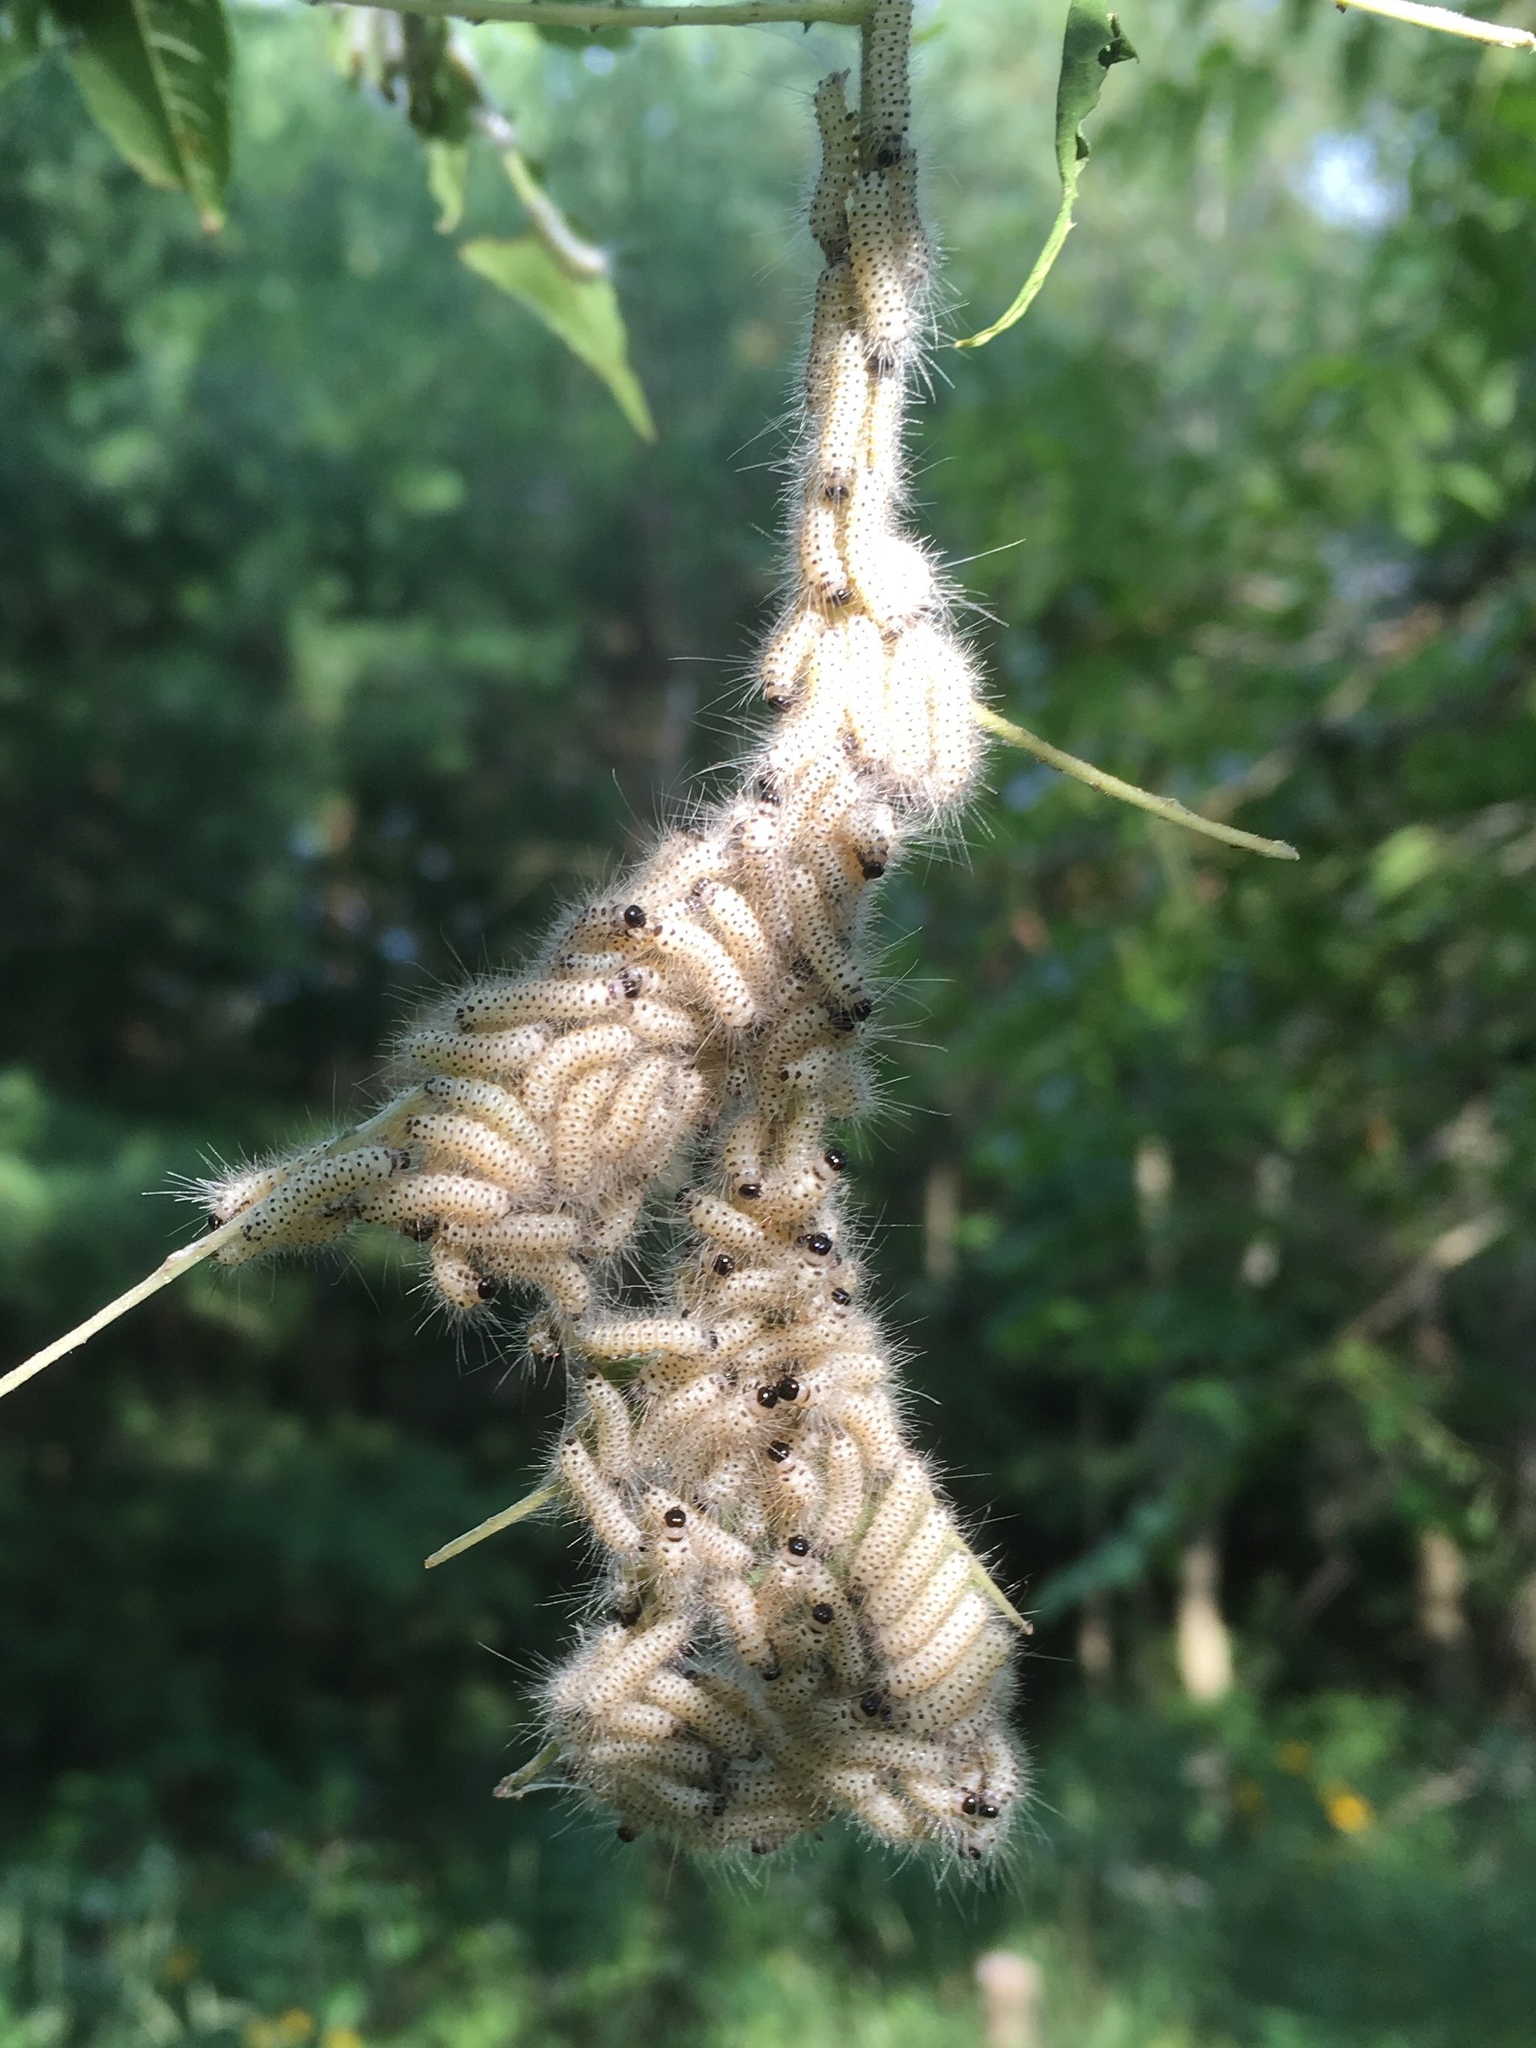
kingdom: Animalia
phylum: Arthropoda
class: Insecta
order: Lepidoptera
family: Erebidae
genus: Lophocampa
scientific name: Lophocampa caryae
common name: Hickory tussock moth
